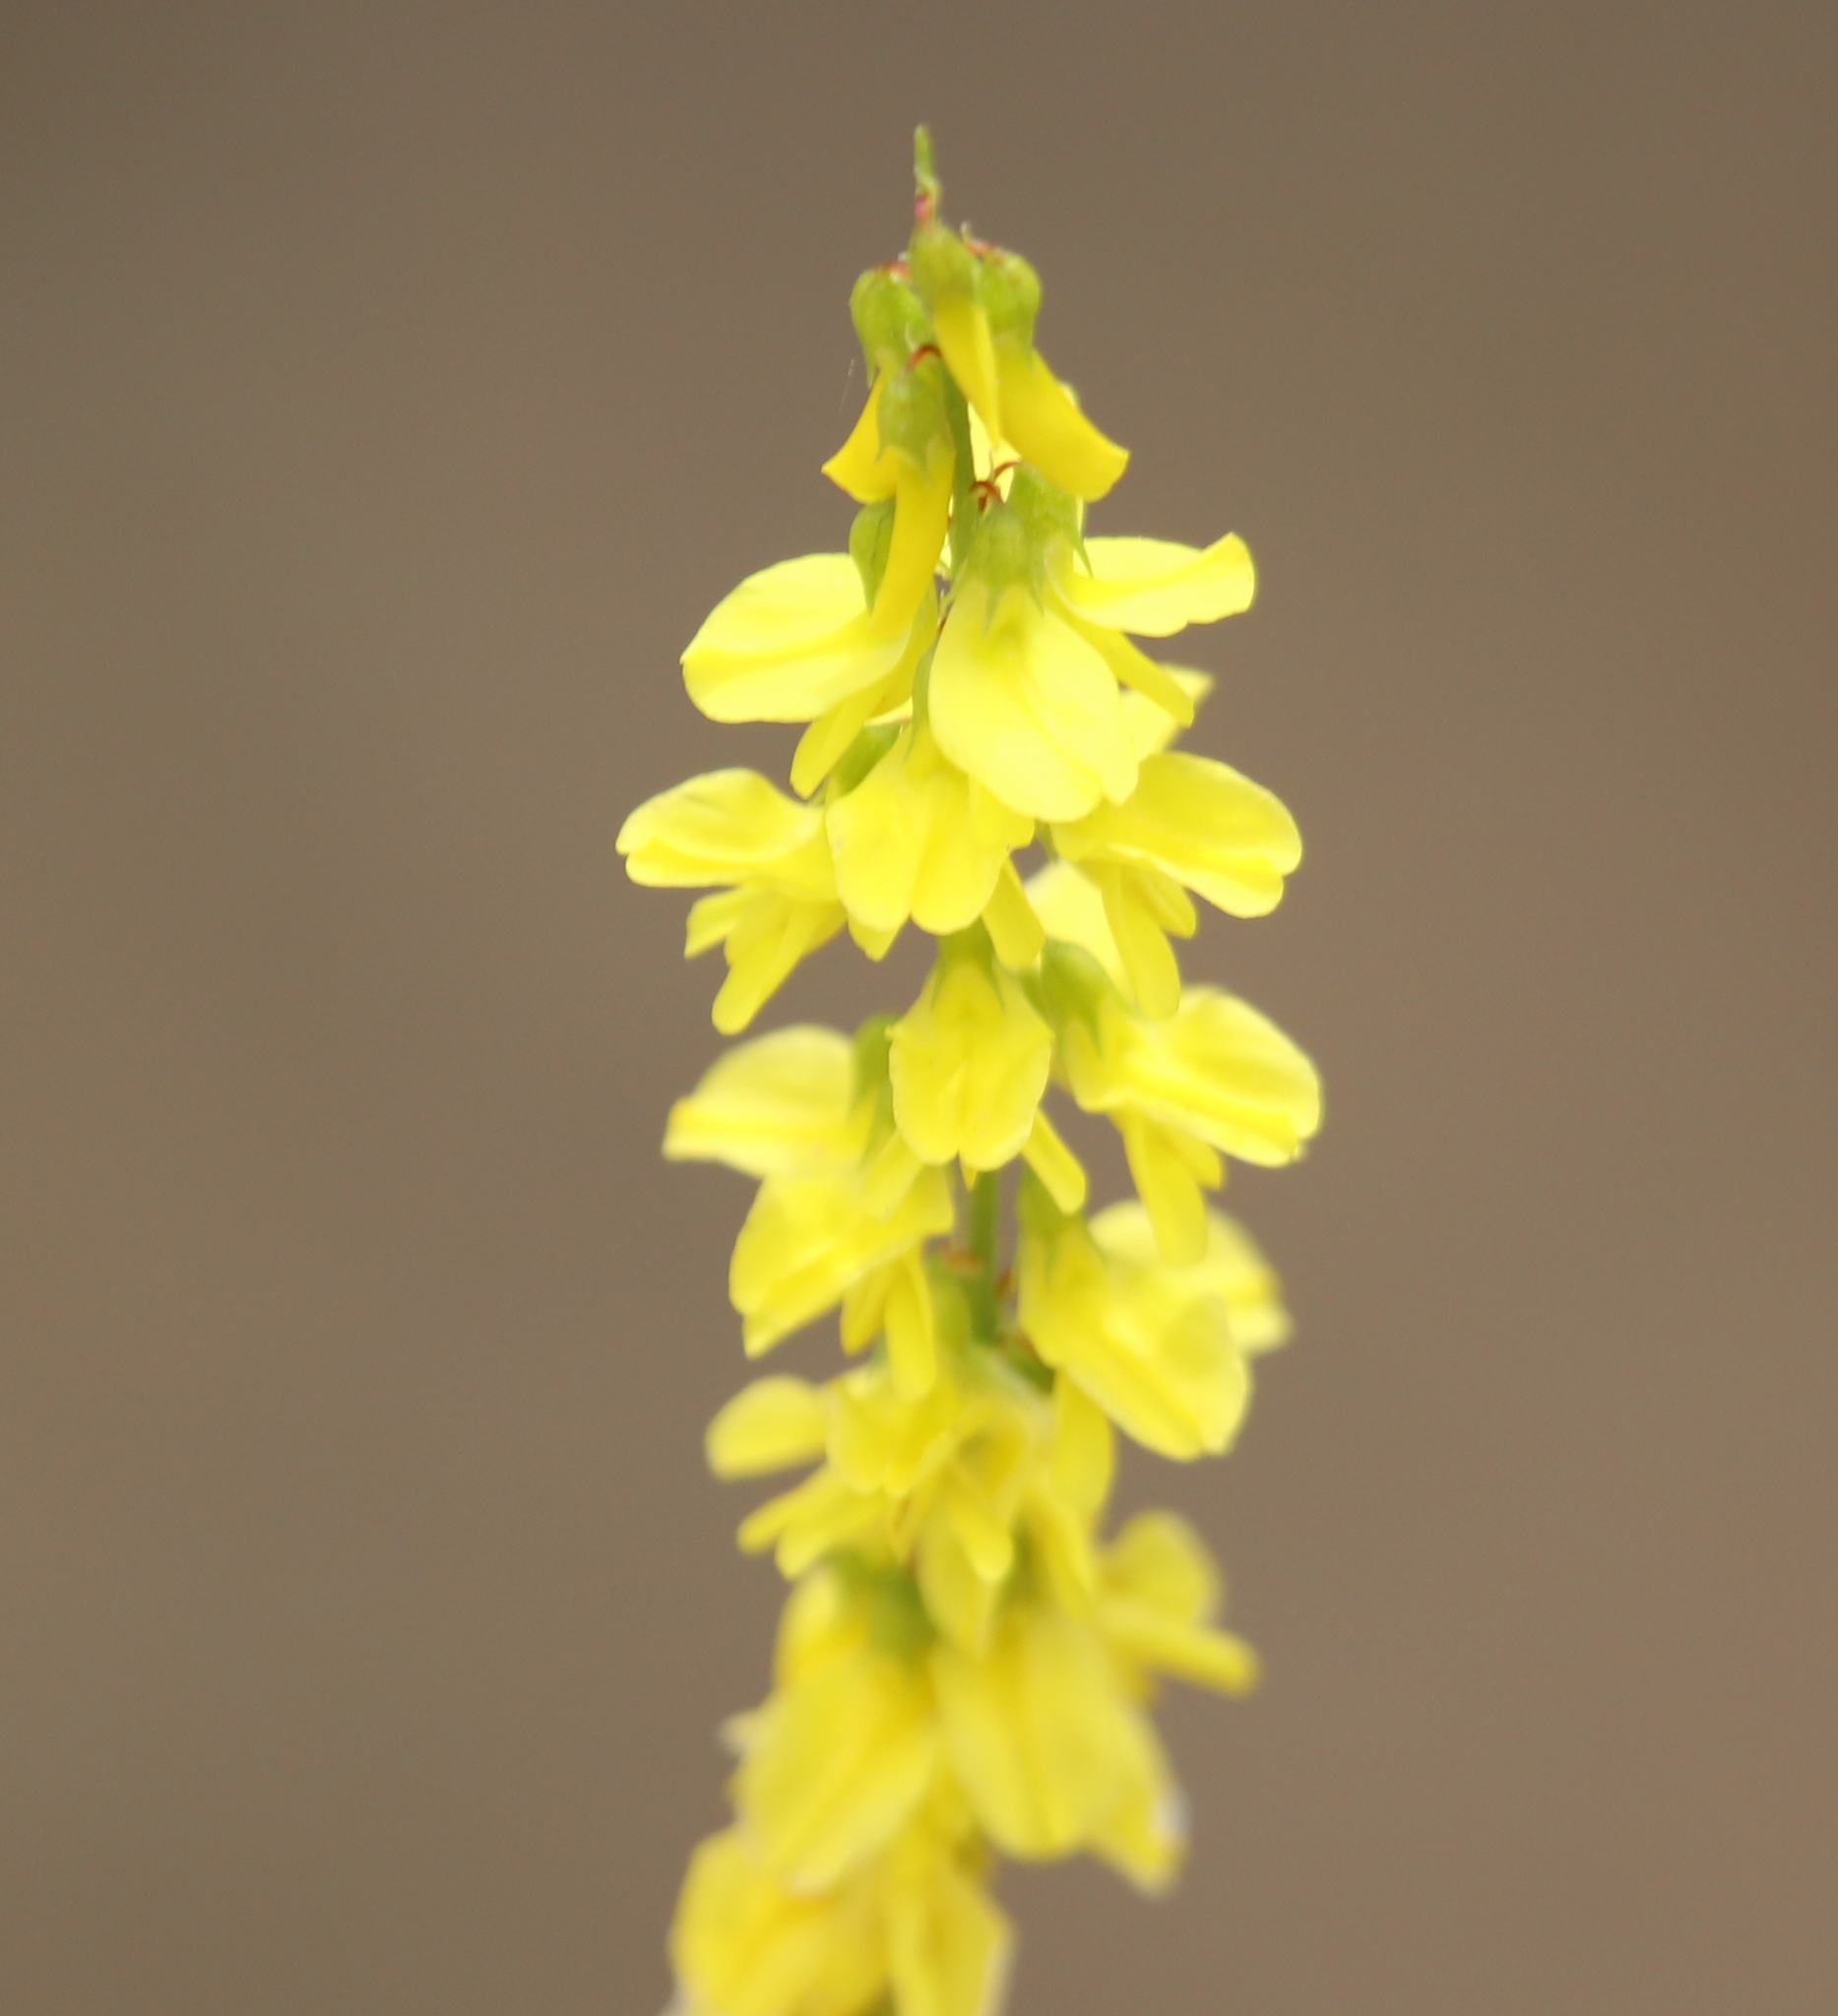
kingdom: Plantae
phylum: Tracheophyta
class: Magnoliopsida
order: Fabales
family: Fabaceae
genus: Melilotus
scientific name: Melilotus officinalis
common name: Sweetclover
